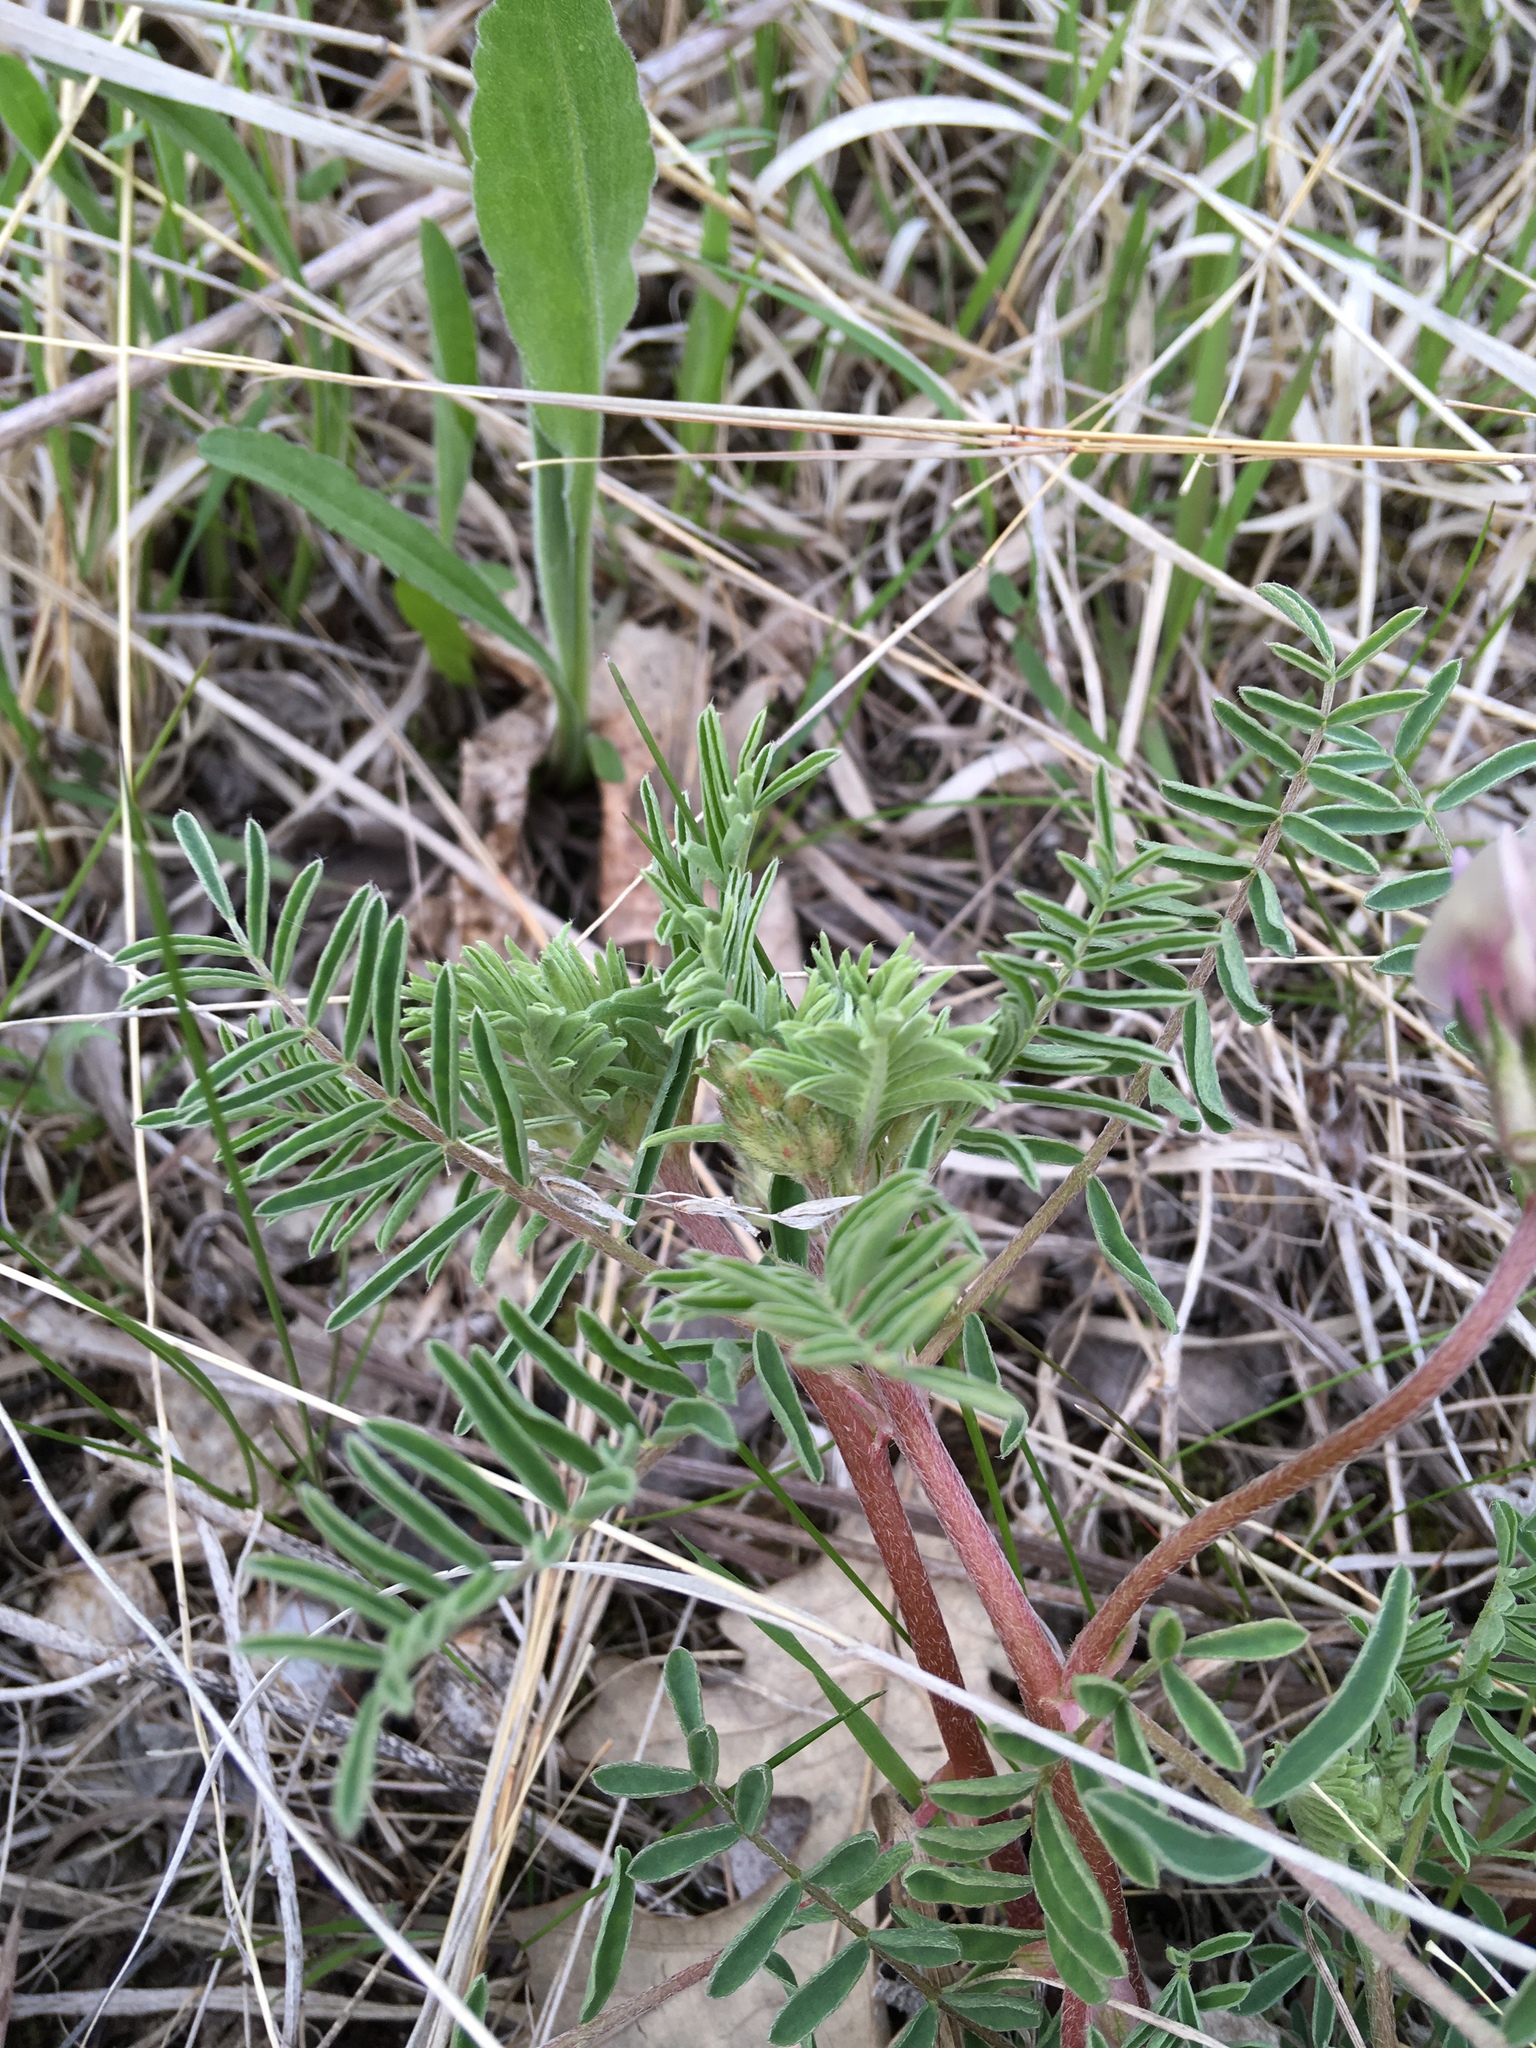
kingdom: Plantae
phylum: Tracheophyta
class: Magnoliopsida
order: Fabales
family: Fabaceae
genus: Astragalus
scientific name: Astragalus crassicarpus
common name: Ground-plum milk-vetch
